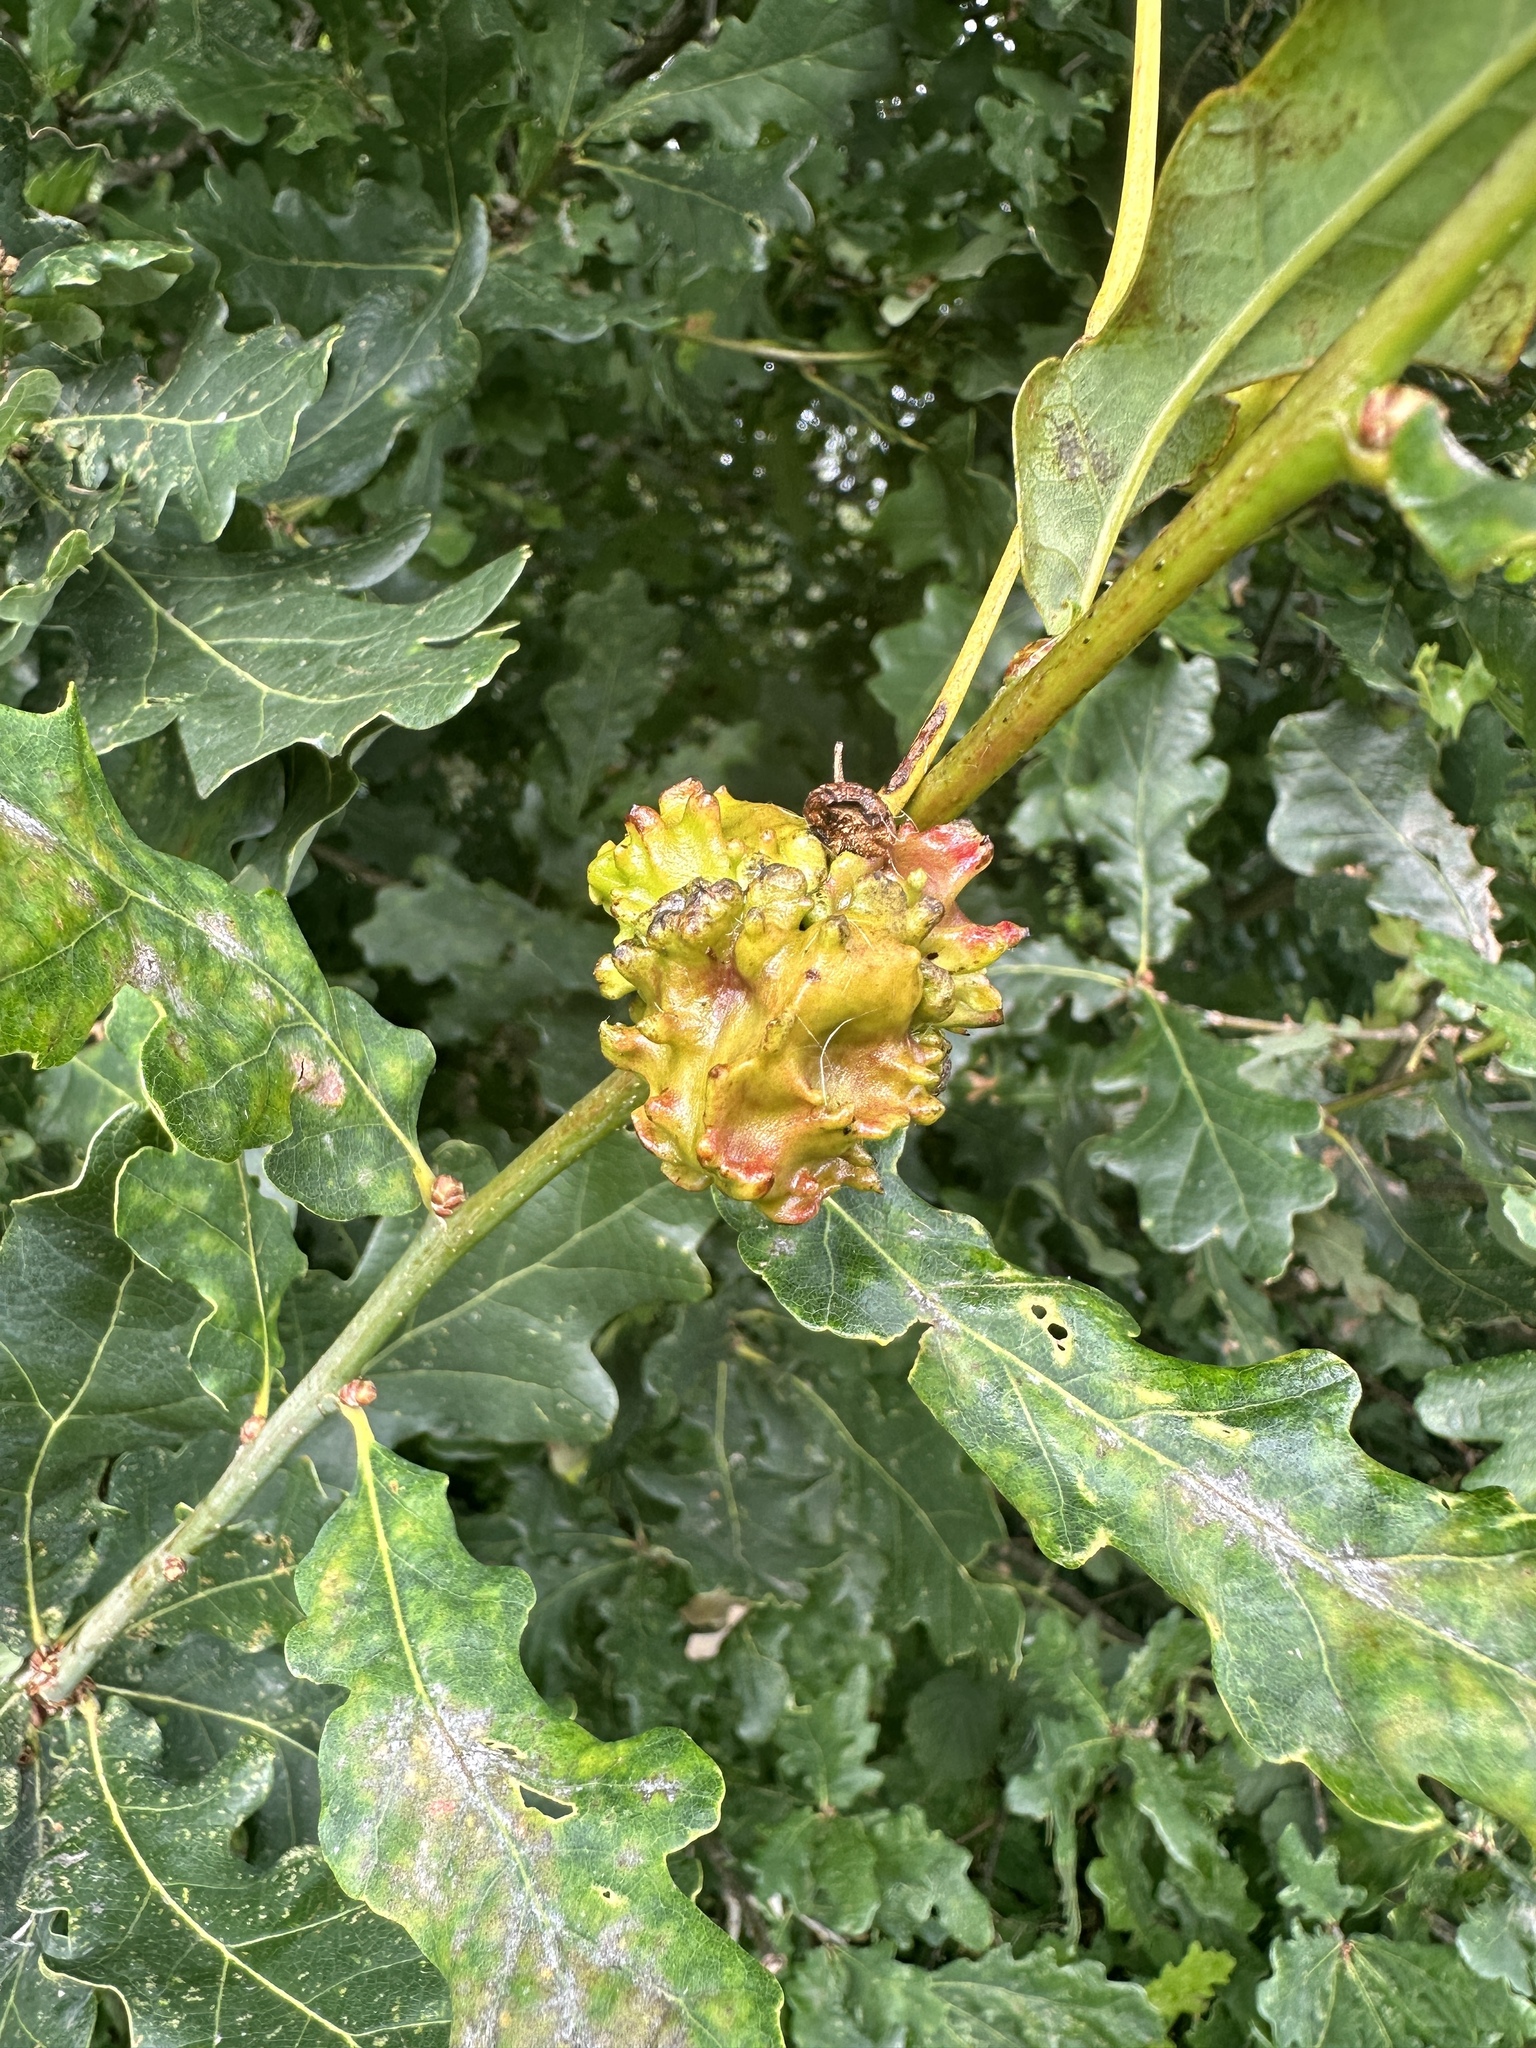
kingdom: Animalia
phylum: Arthropoda
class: Insecta
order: Hymenoptera
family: Cynipidae
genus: Andricus
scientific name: Andricus quercuscalicis
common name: Knopper gall
